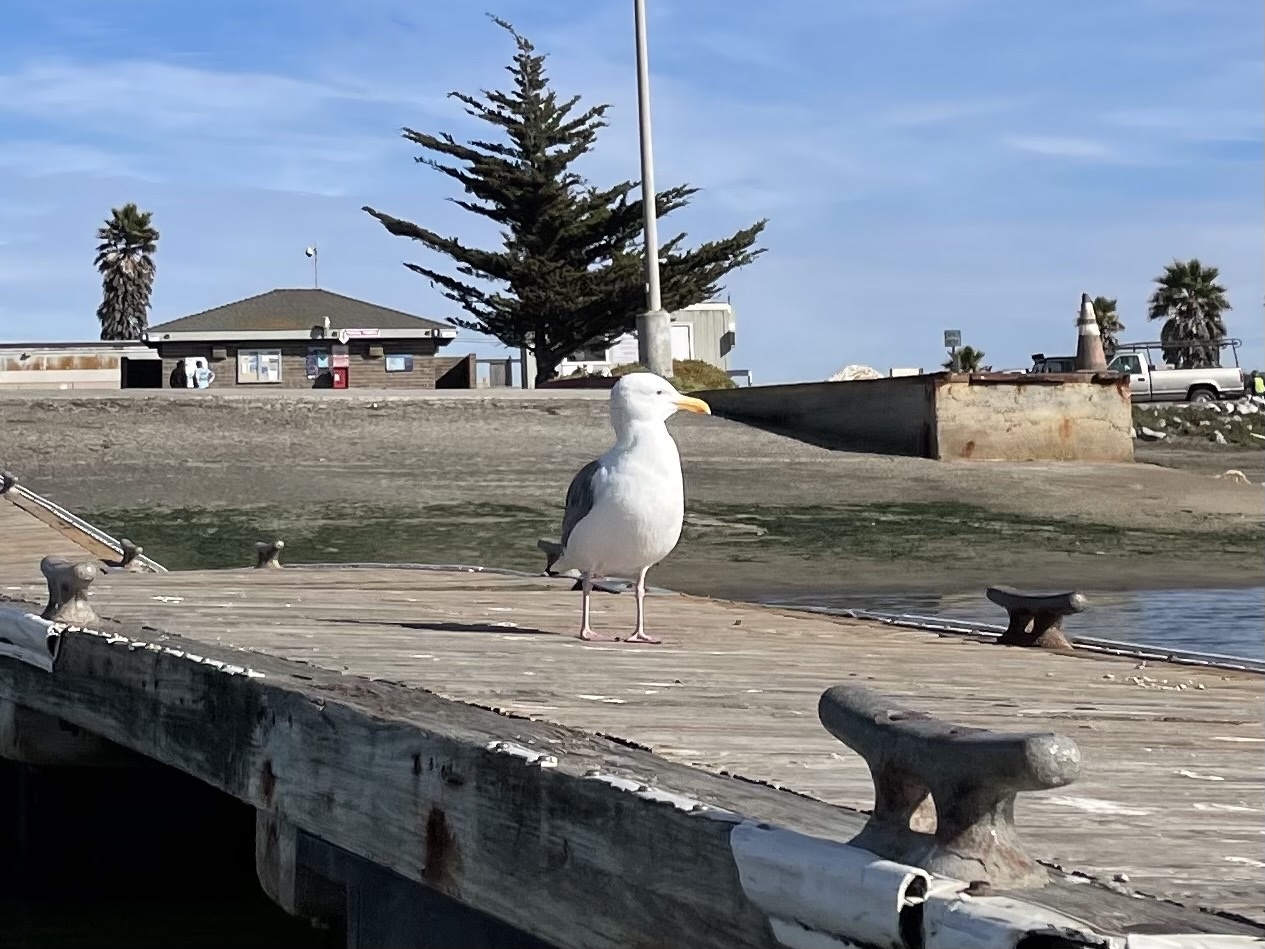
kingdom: Animalia
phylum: Chordata
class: Aves
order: Charadriiformes
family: Laridae
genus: Larus
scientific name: Larus occidentalis
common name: Western gull
